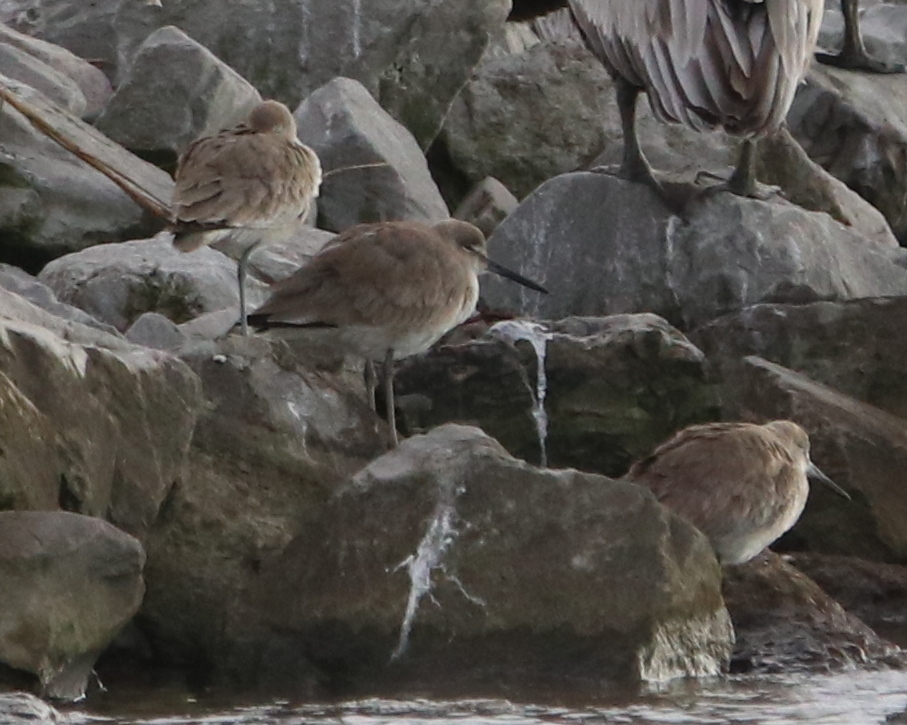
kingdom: Animalia
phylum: Chordata
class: Aves
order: Charadriiformes
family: Scolopacidae
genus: Tringa
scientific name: Tringa semipalmata
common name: Willet
